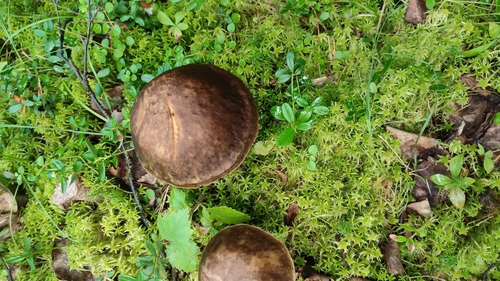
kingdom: Fungi
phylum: Basidiomycota
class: Agaricomycetes
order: Boletales
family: Boletaceae
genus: Leccinum
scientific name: Leccinum
